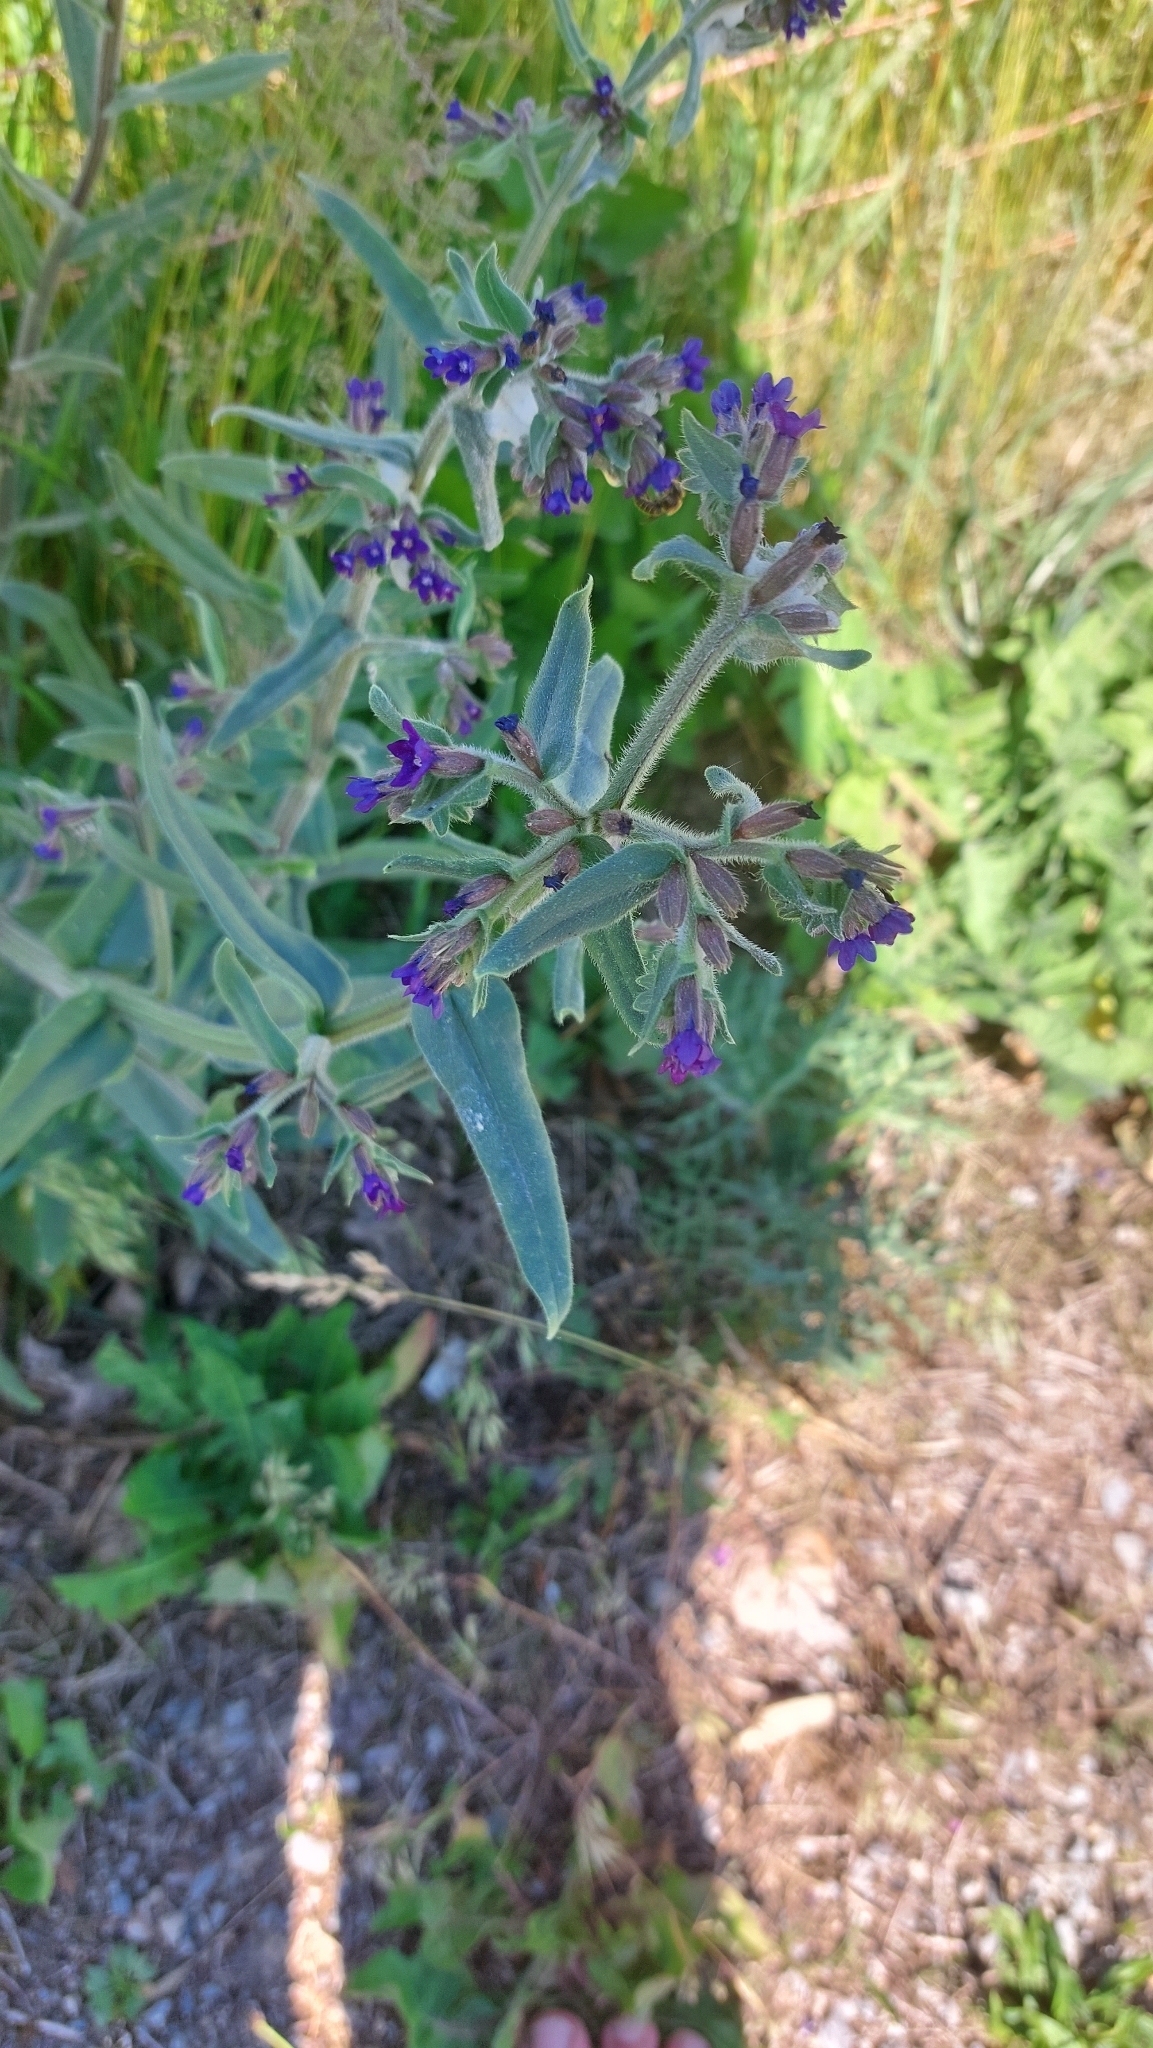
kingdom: Plantae
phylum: Tracheophyta
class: Magnoliopsida
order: Boraginales
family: Boraginaceae
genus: Anchusa
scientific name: Anchusa officinalis
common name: Alkanet
